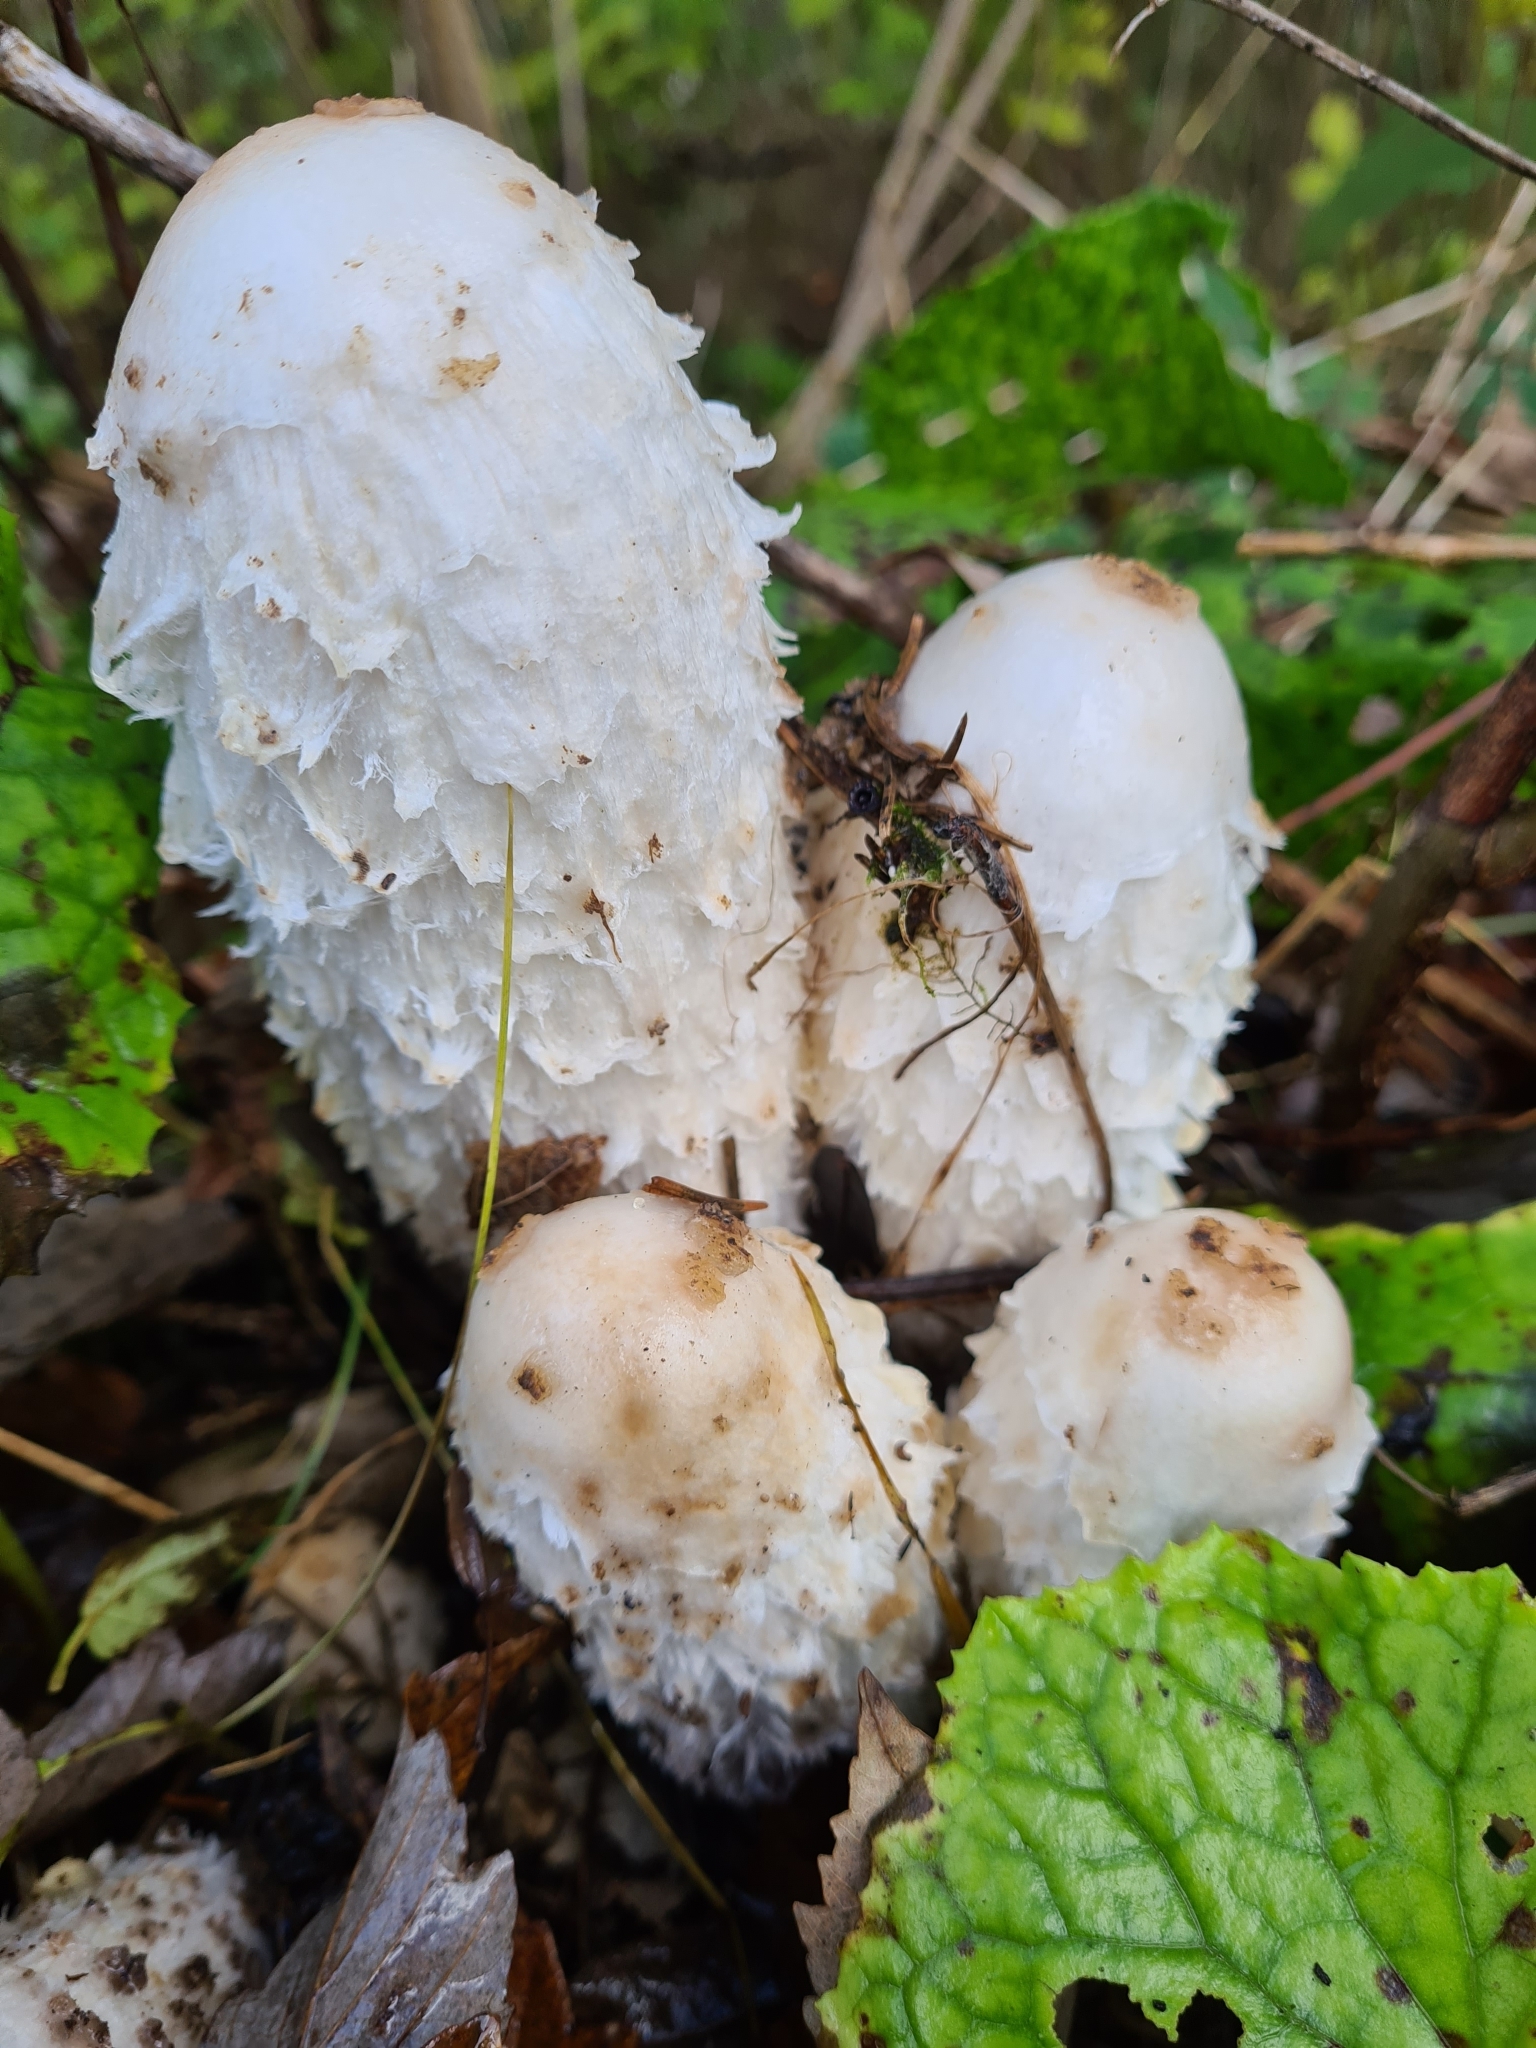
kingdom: Fungi
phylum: Basidiomycota
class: Agaricomycetes
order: Agaricales
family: Agaricaceae
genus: Coprinus
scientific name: Coprinus comatus
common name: Lawyer's wig
